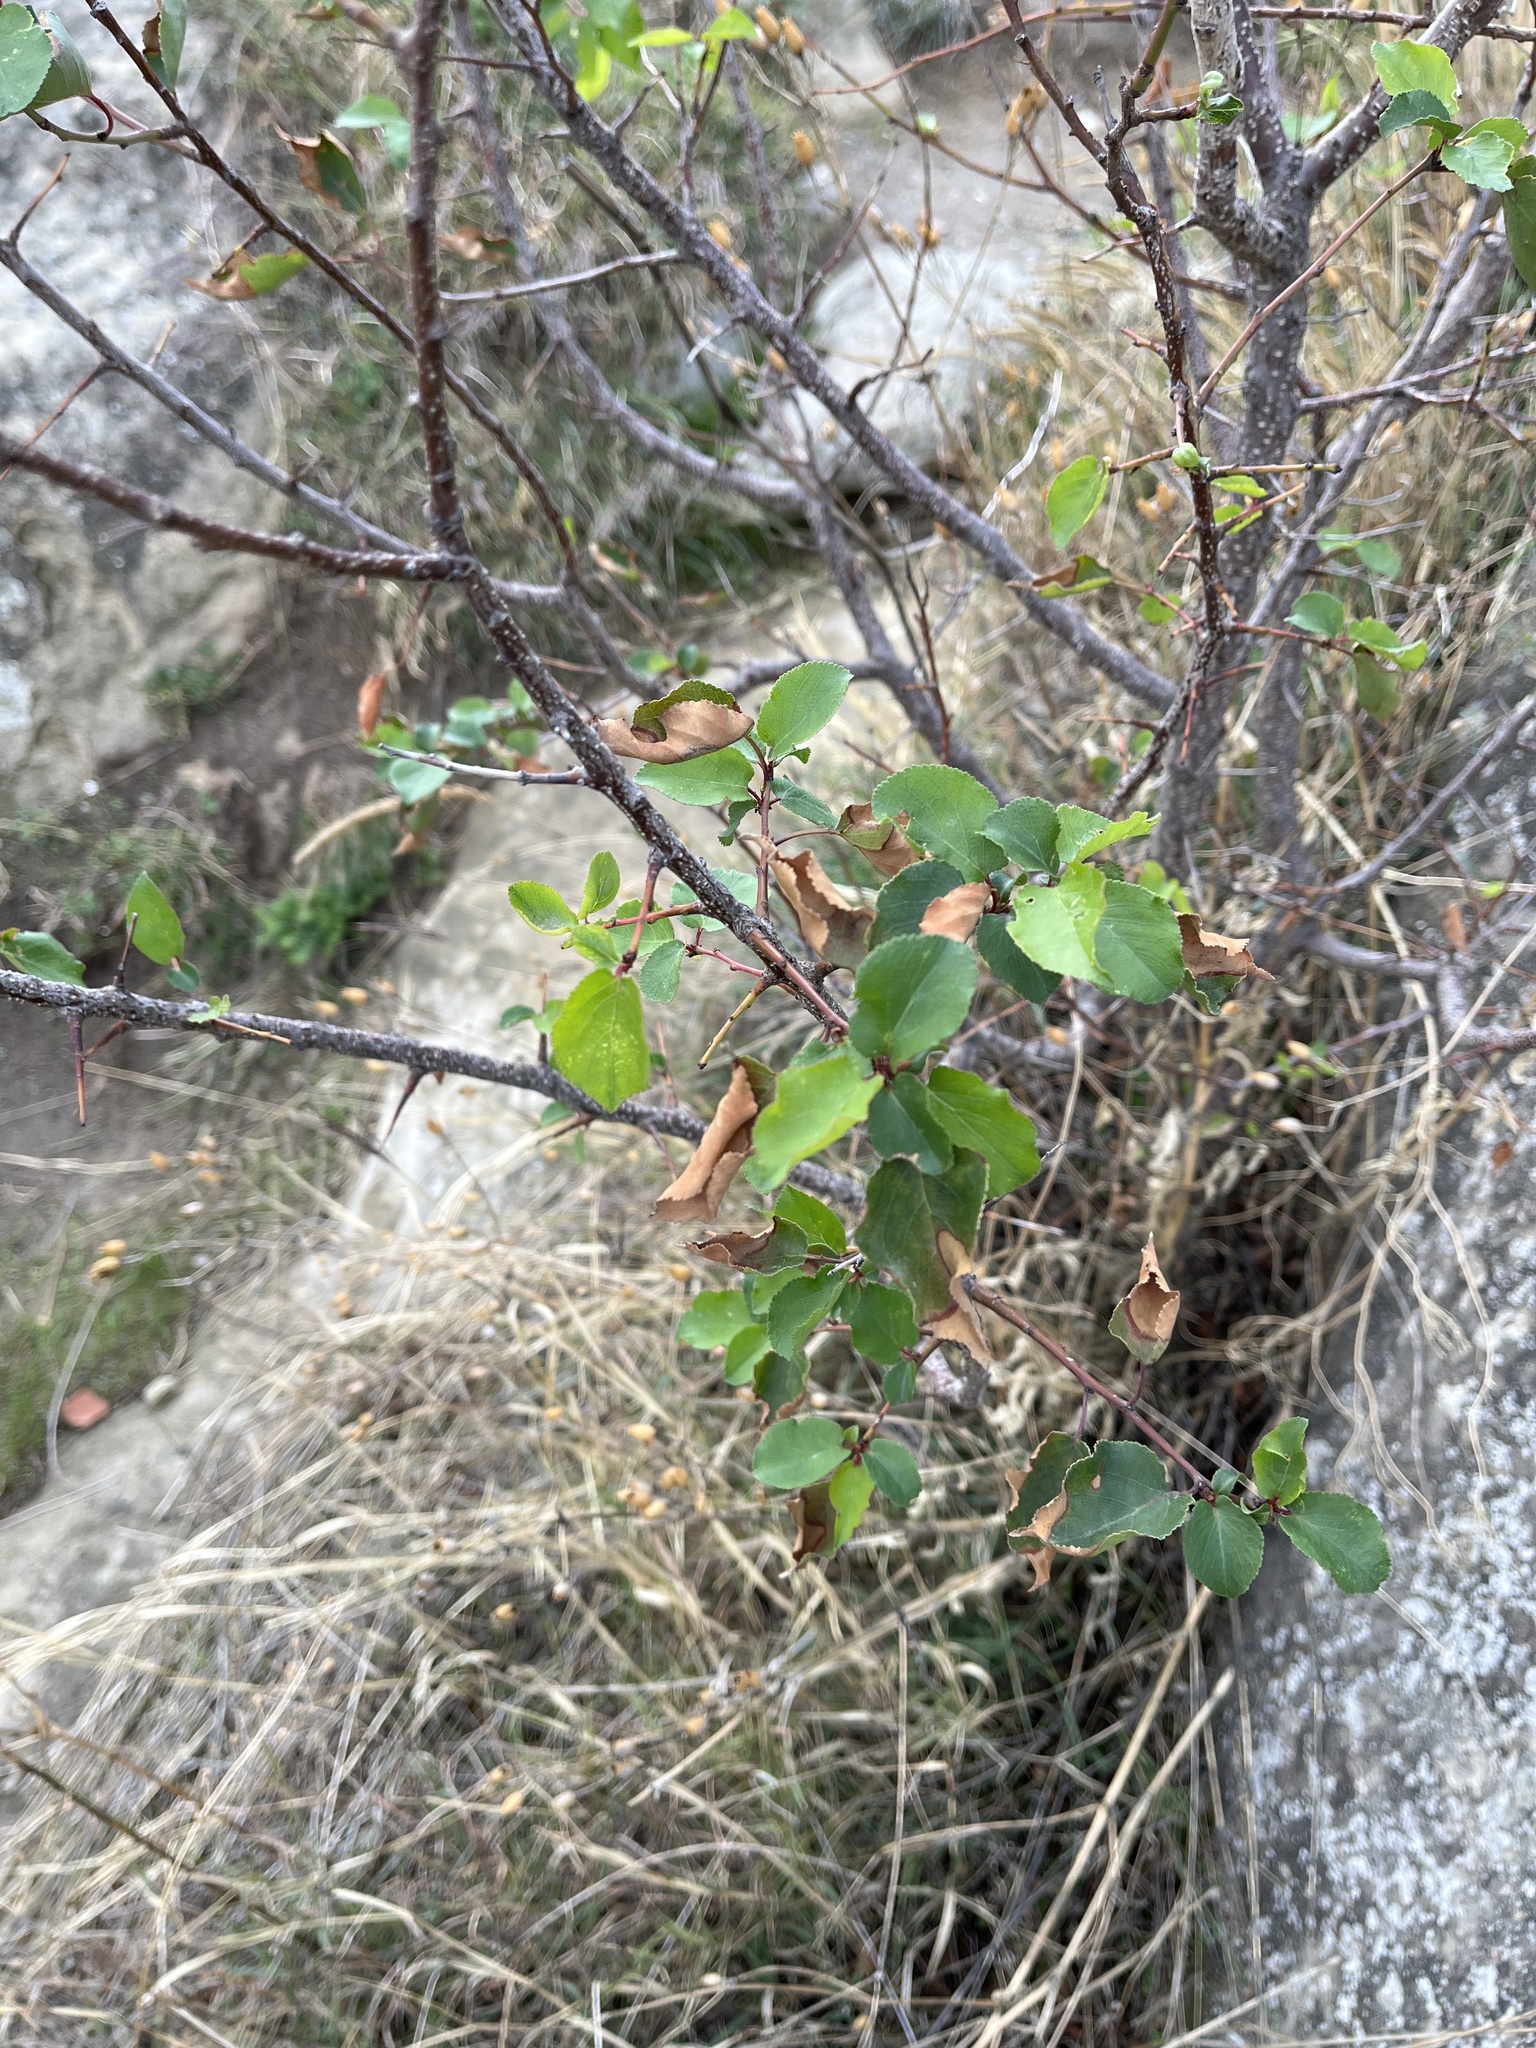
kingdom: Plantae
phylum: Tracheophyta
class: Magnoliopsida
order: Rosales
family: Ulmaceae
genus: Ulmus
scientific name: Ulmus minor
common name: Small-leaved elm
